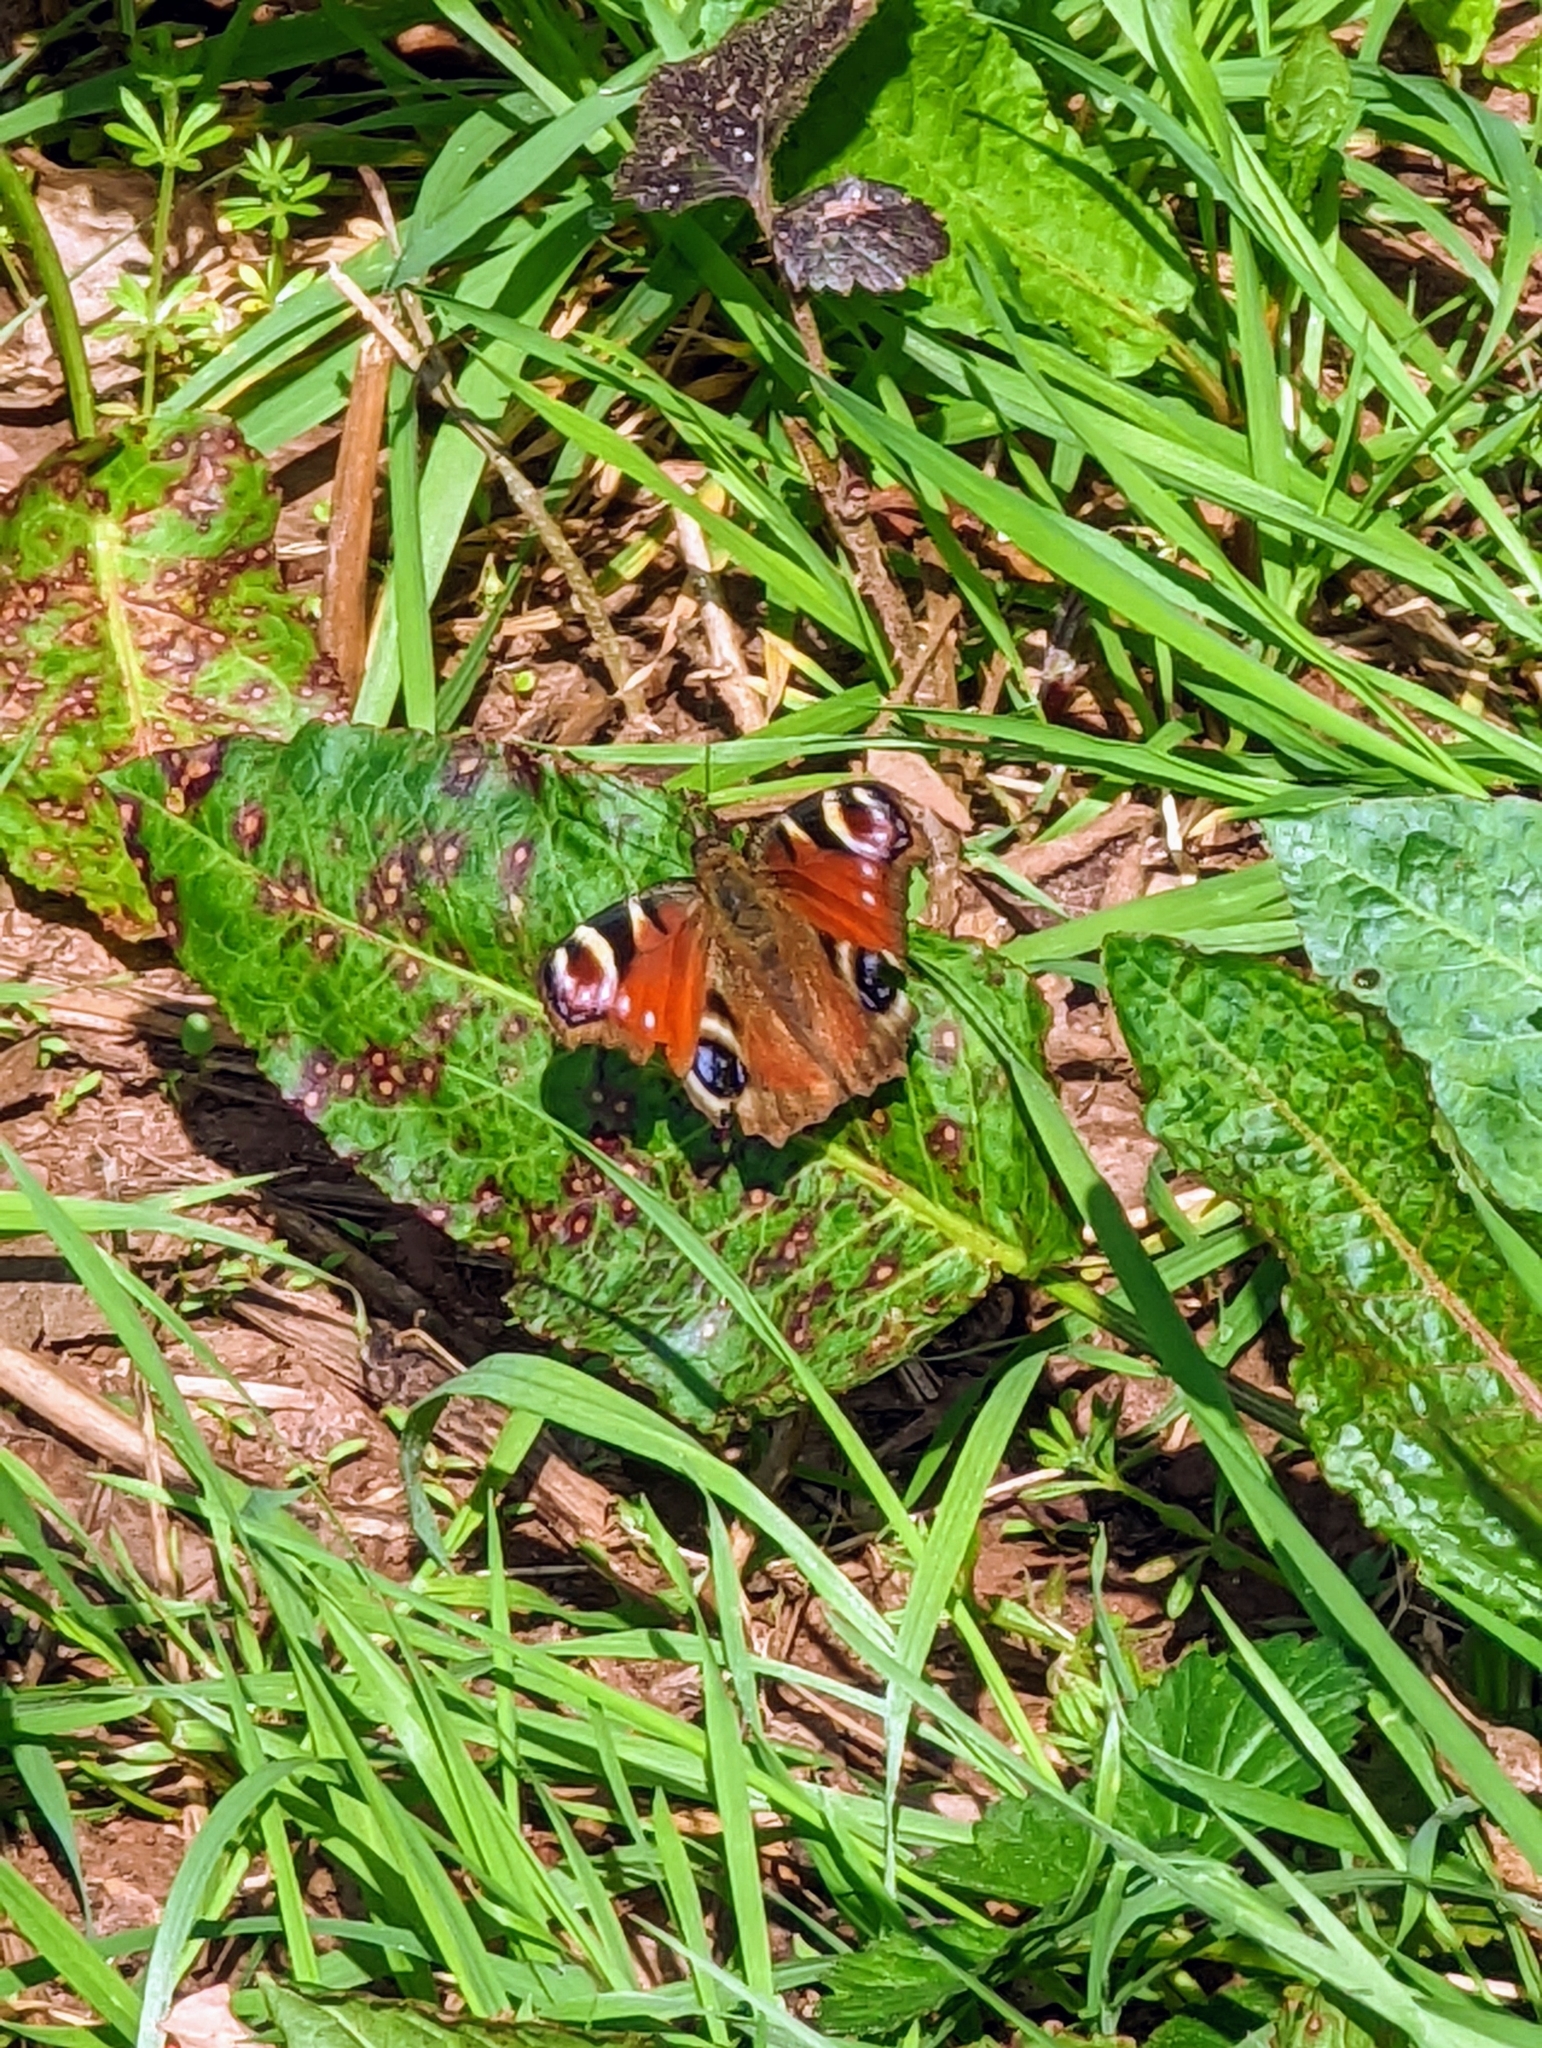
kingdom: Animalia
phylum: Arthropoda
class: Insecta
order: Lepidoptera
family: Nymphalidae
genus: Aglais
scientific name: Aglais io
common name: Peacock
